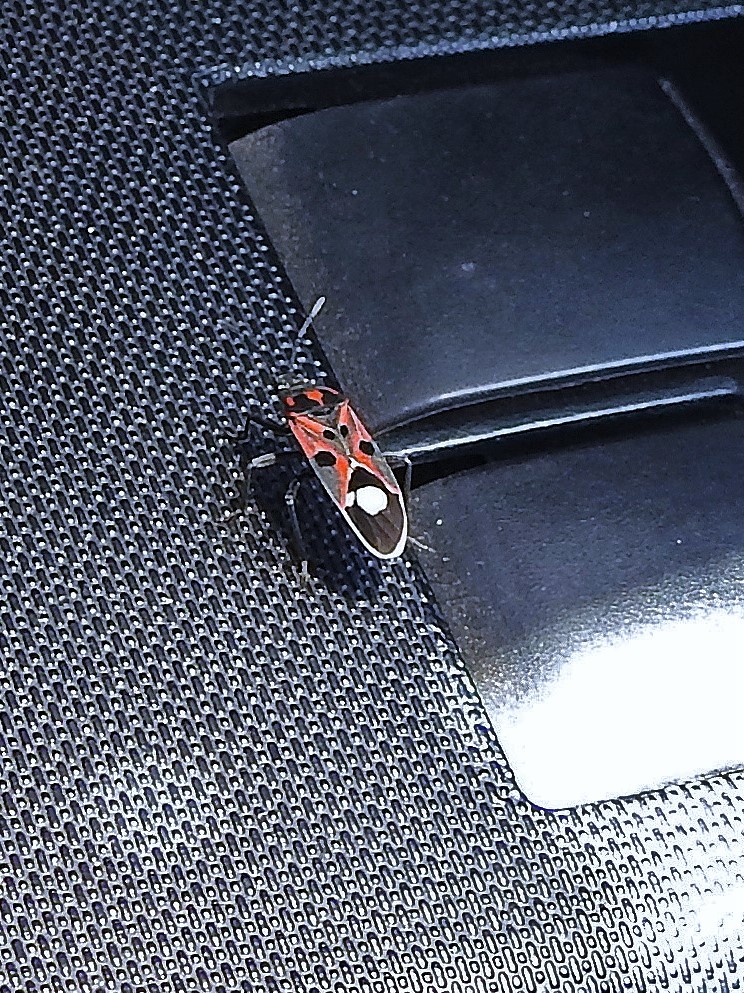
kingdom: Animalia
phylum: Arthropoda
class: Insecta
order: Hemiptera
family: Lygaeidae
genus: Lygaeus
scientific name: Lygaeus alboornatus
